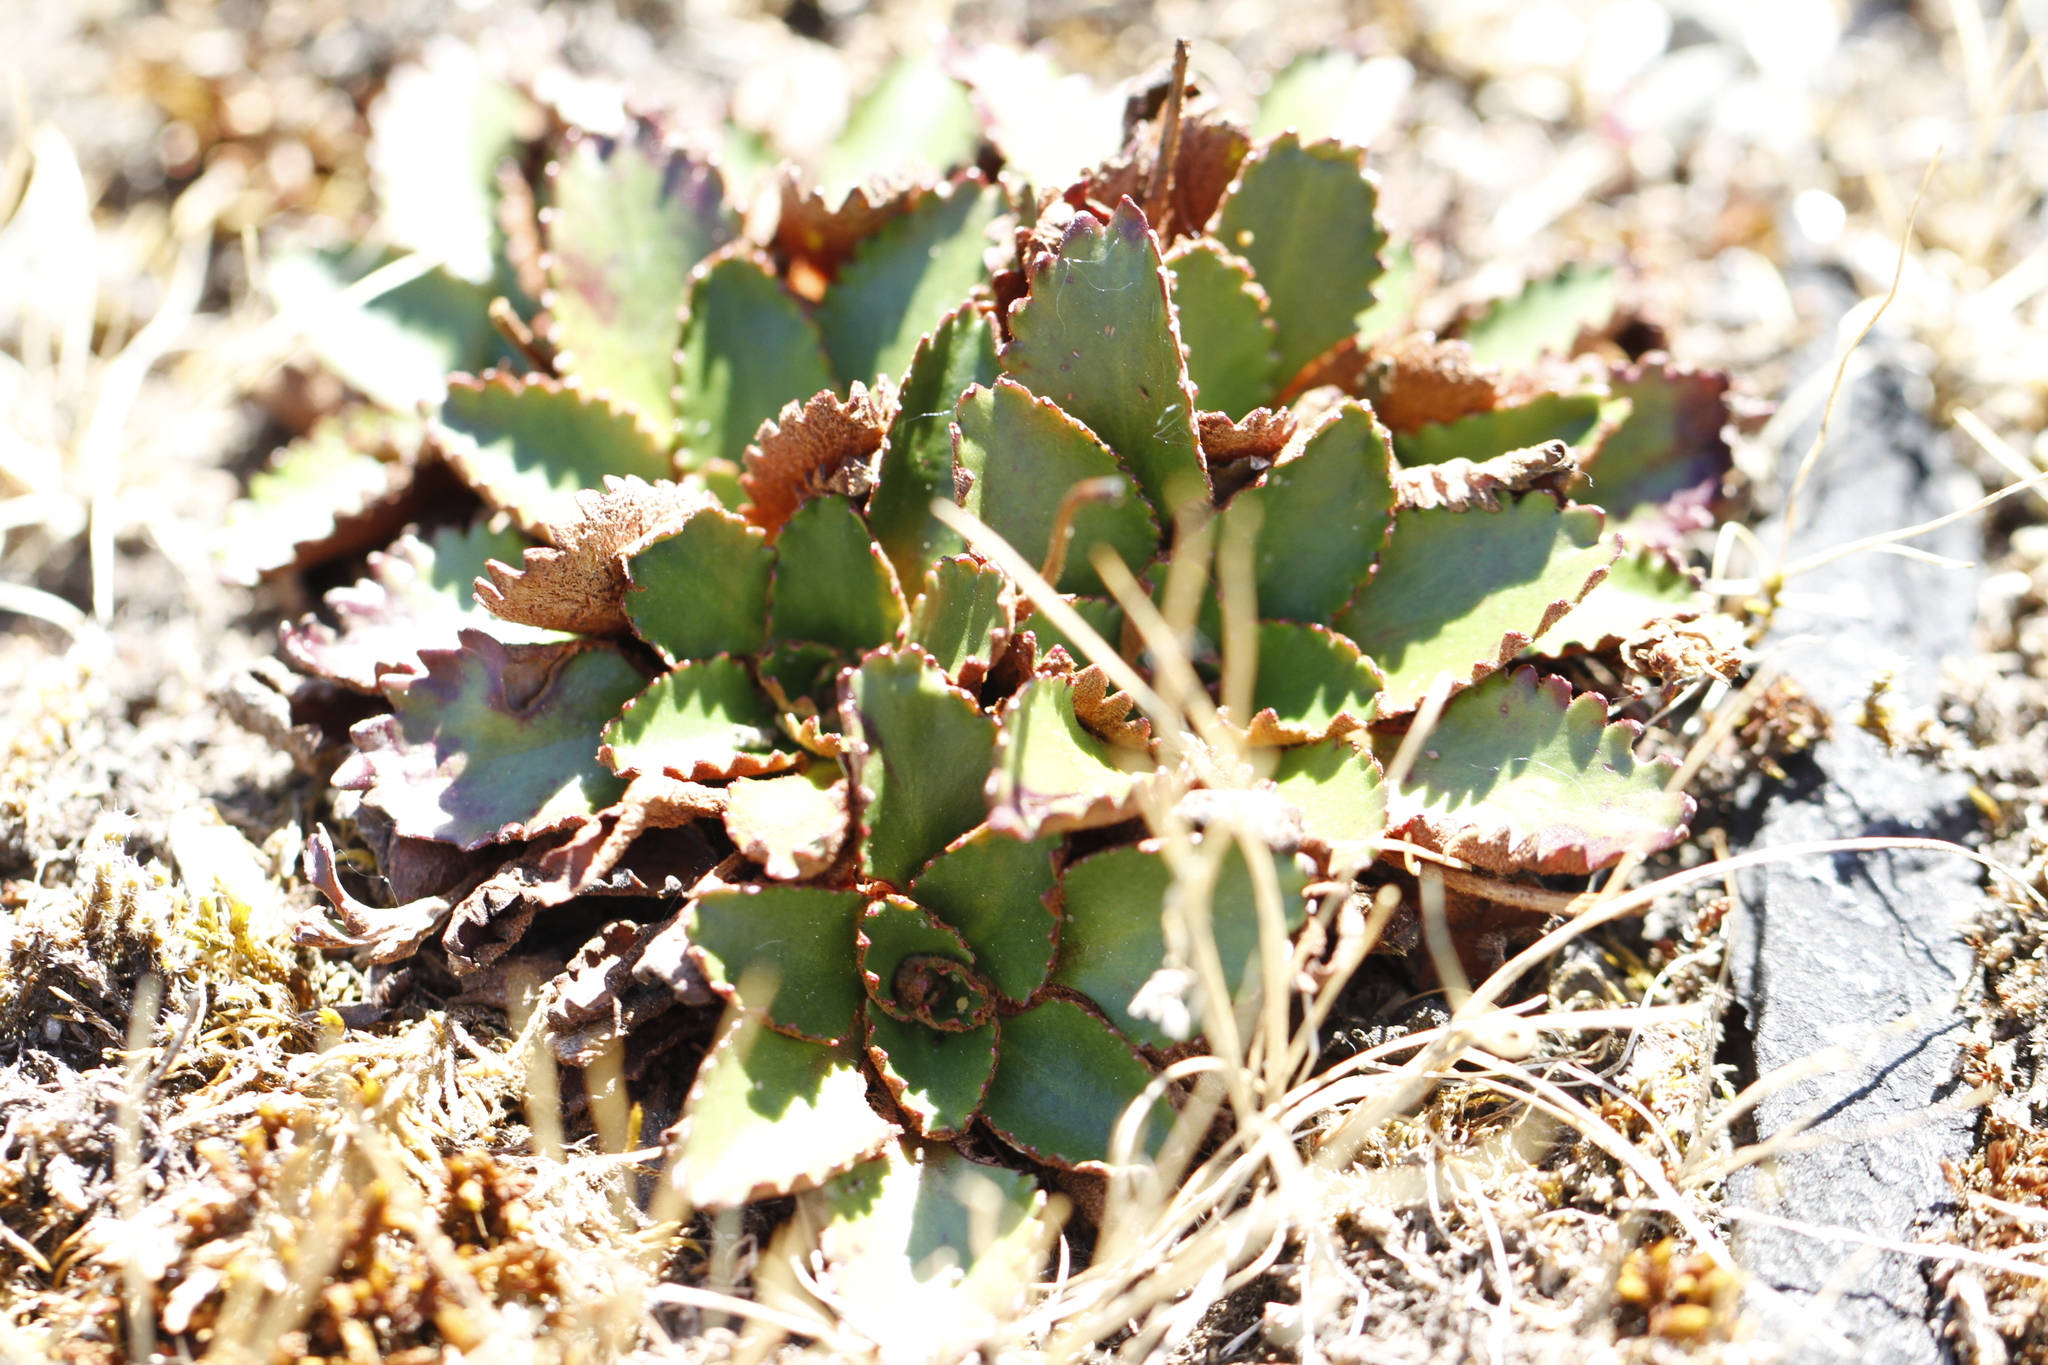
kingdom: Plantae
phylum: Tracheophyta
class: Magnoliopsida
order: Saxifragales
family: Saxifragaceae
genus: Micranthes
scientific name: Micranthes rufidula
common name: Rustyhair saxifrage
